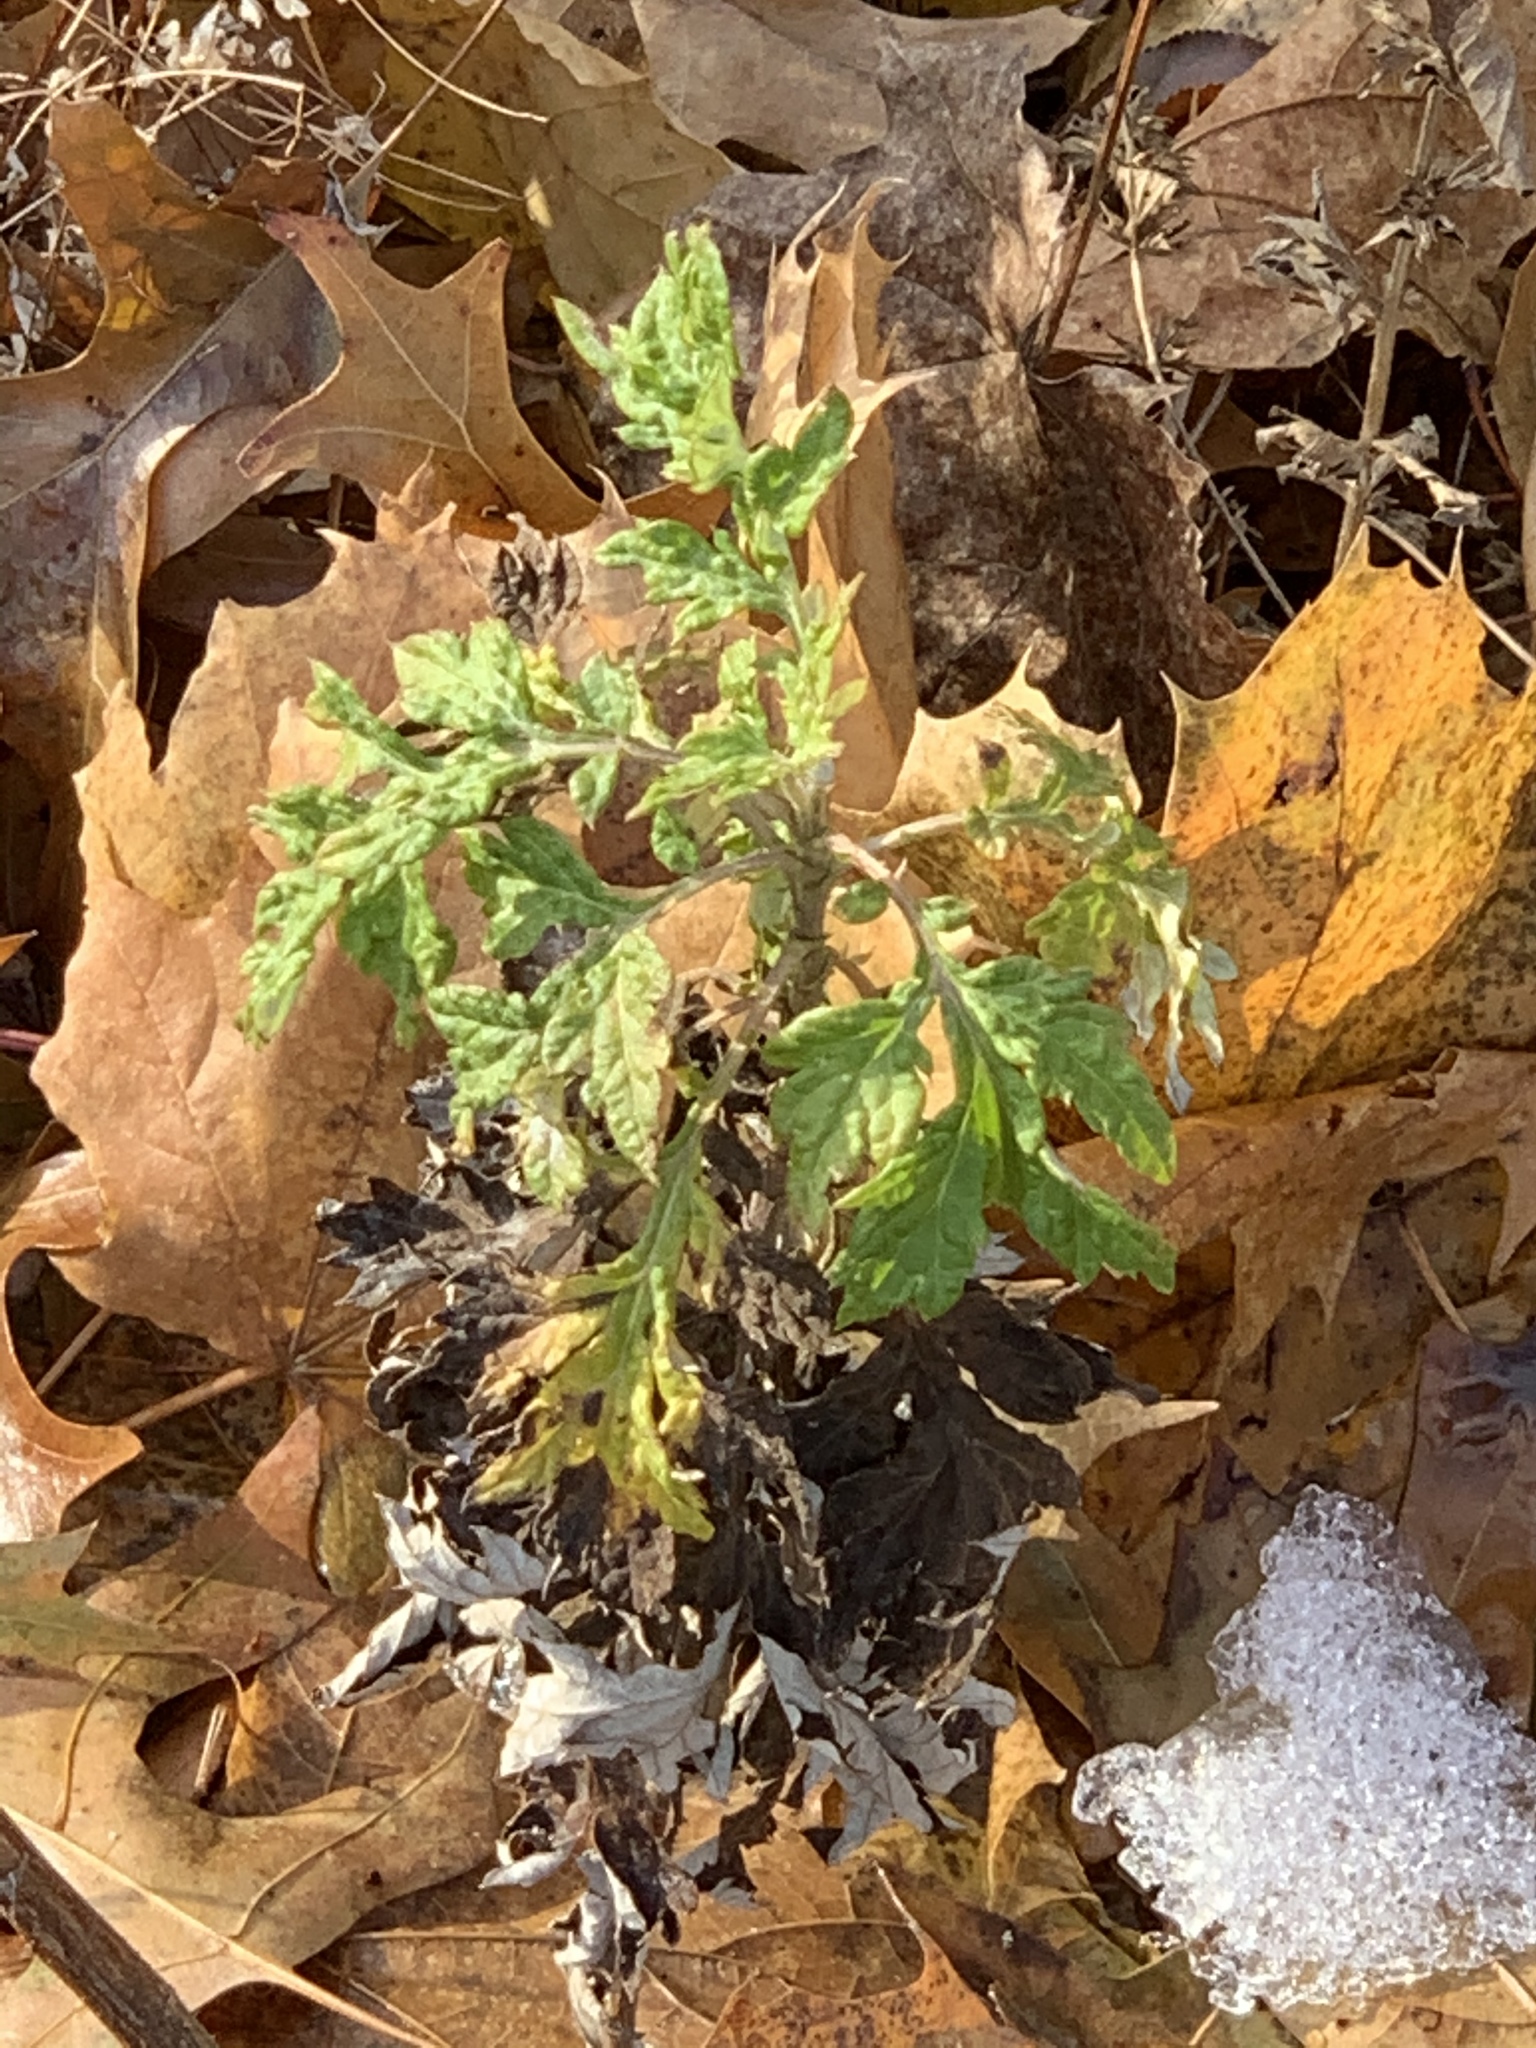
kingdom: Plantae
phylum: Tracheophyta
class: Magnoliopsida
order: Asterales
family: Asteraceae
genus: Artemisia
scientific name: Artemisia vulgaris
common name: Mugwort
